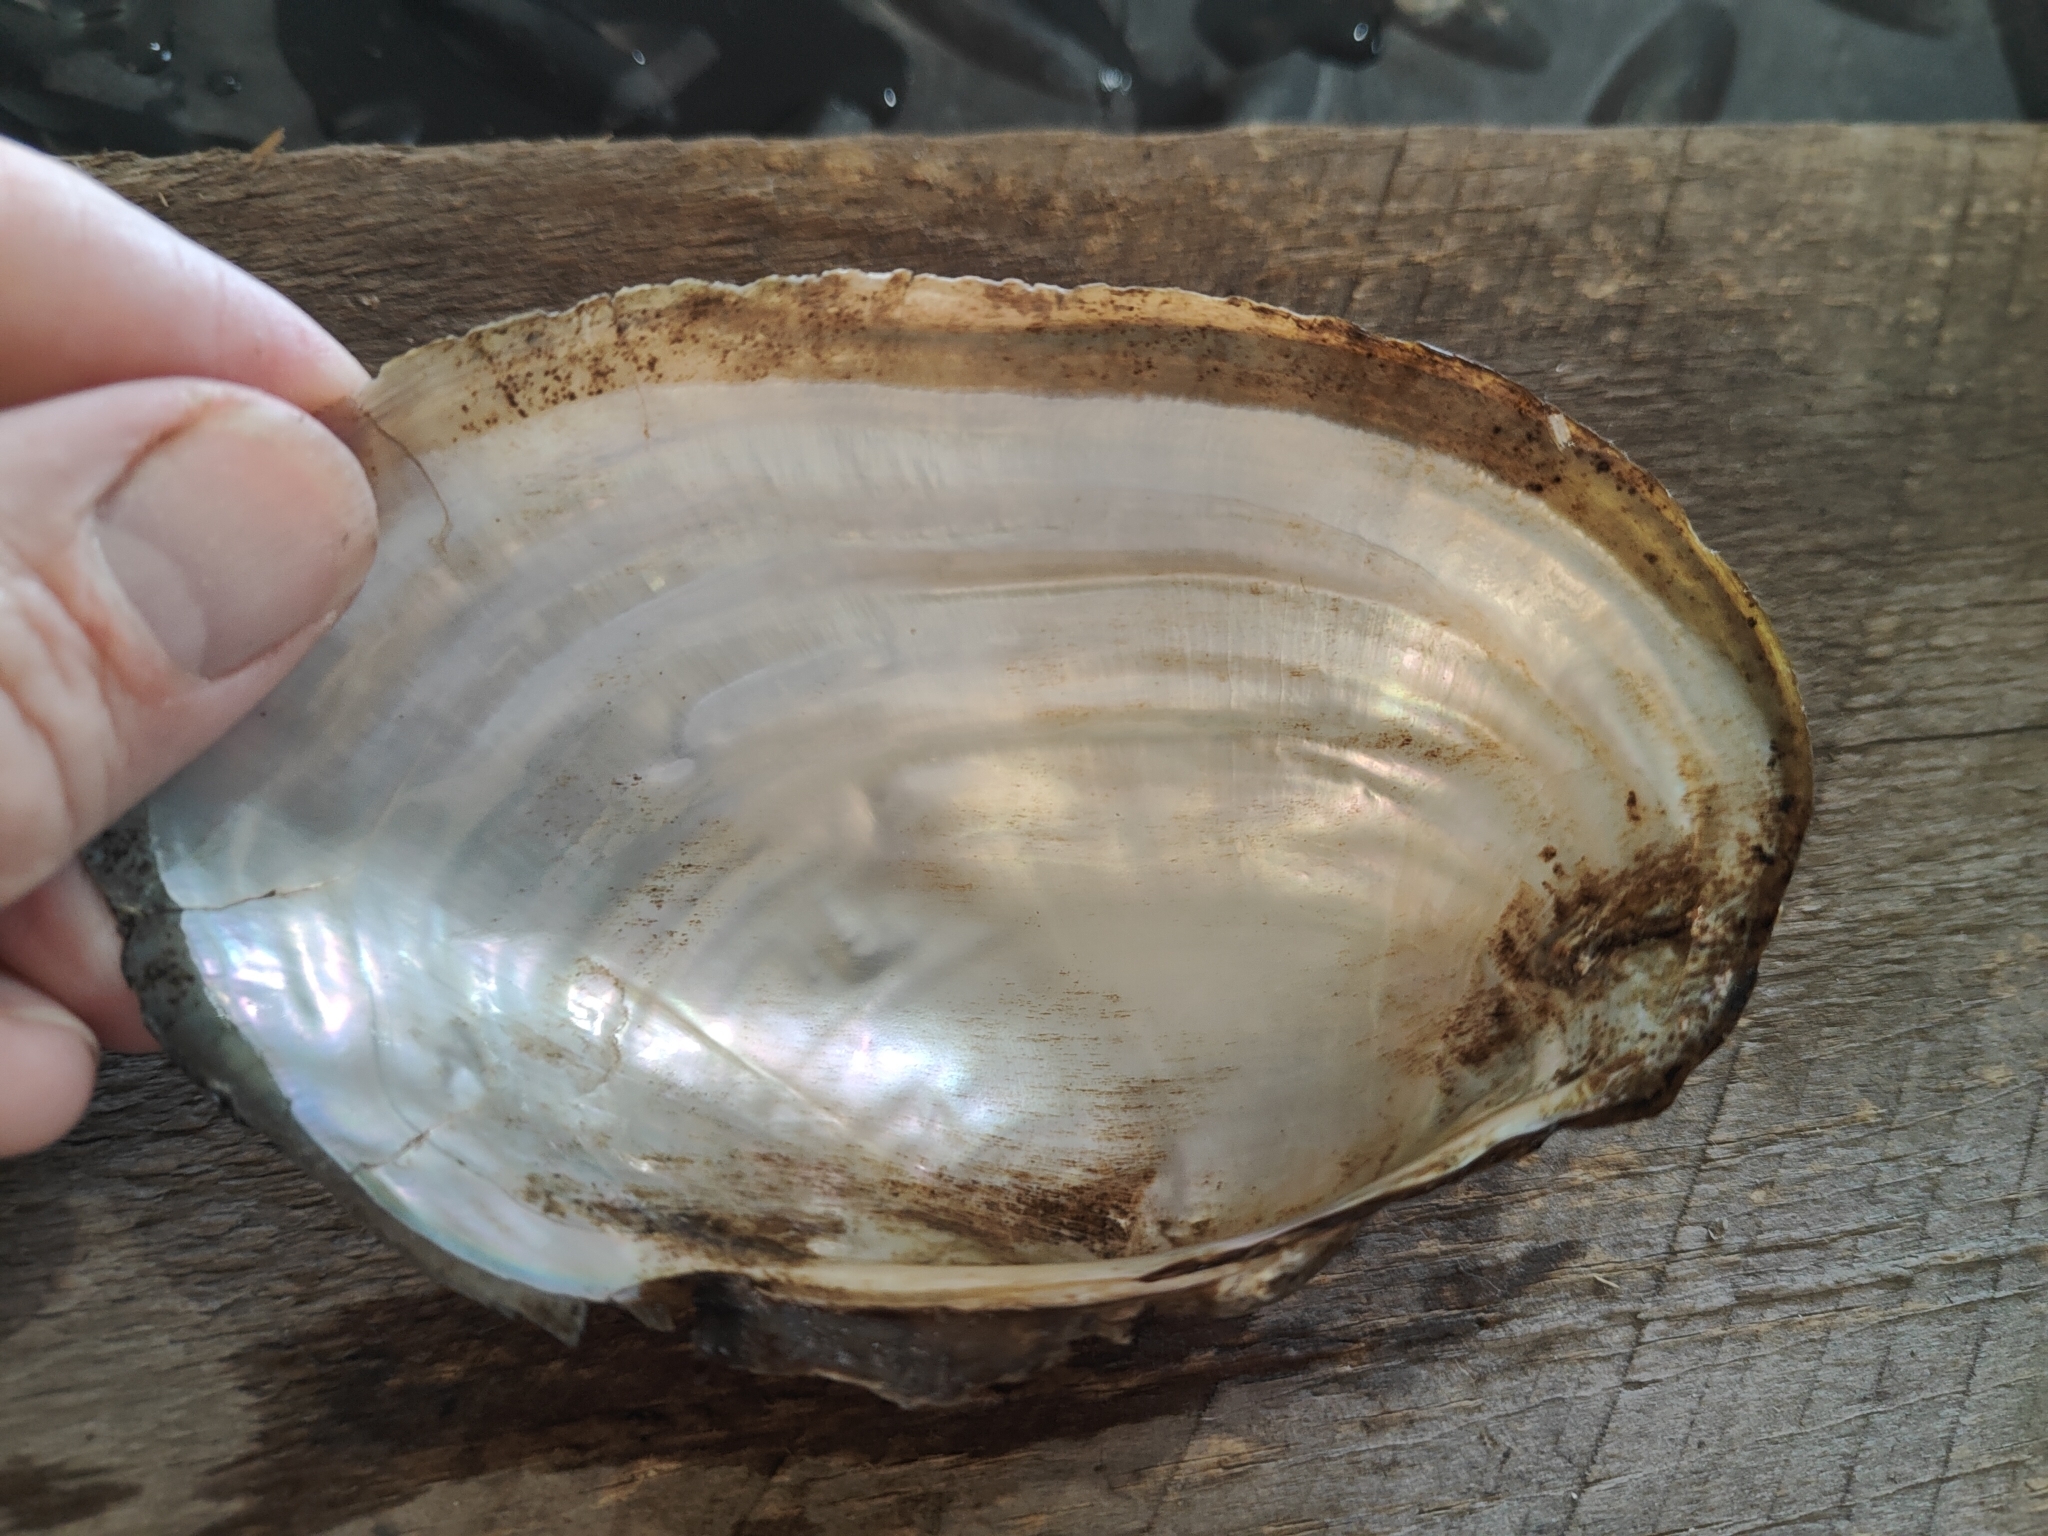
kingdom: Animalia
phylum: Mollusca
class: Bivalvia
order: Unionida
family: Unionidae
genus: Pyganodon
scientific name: Pyganodon grandis
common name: Giant floater
